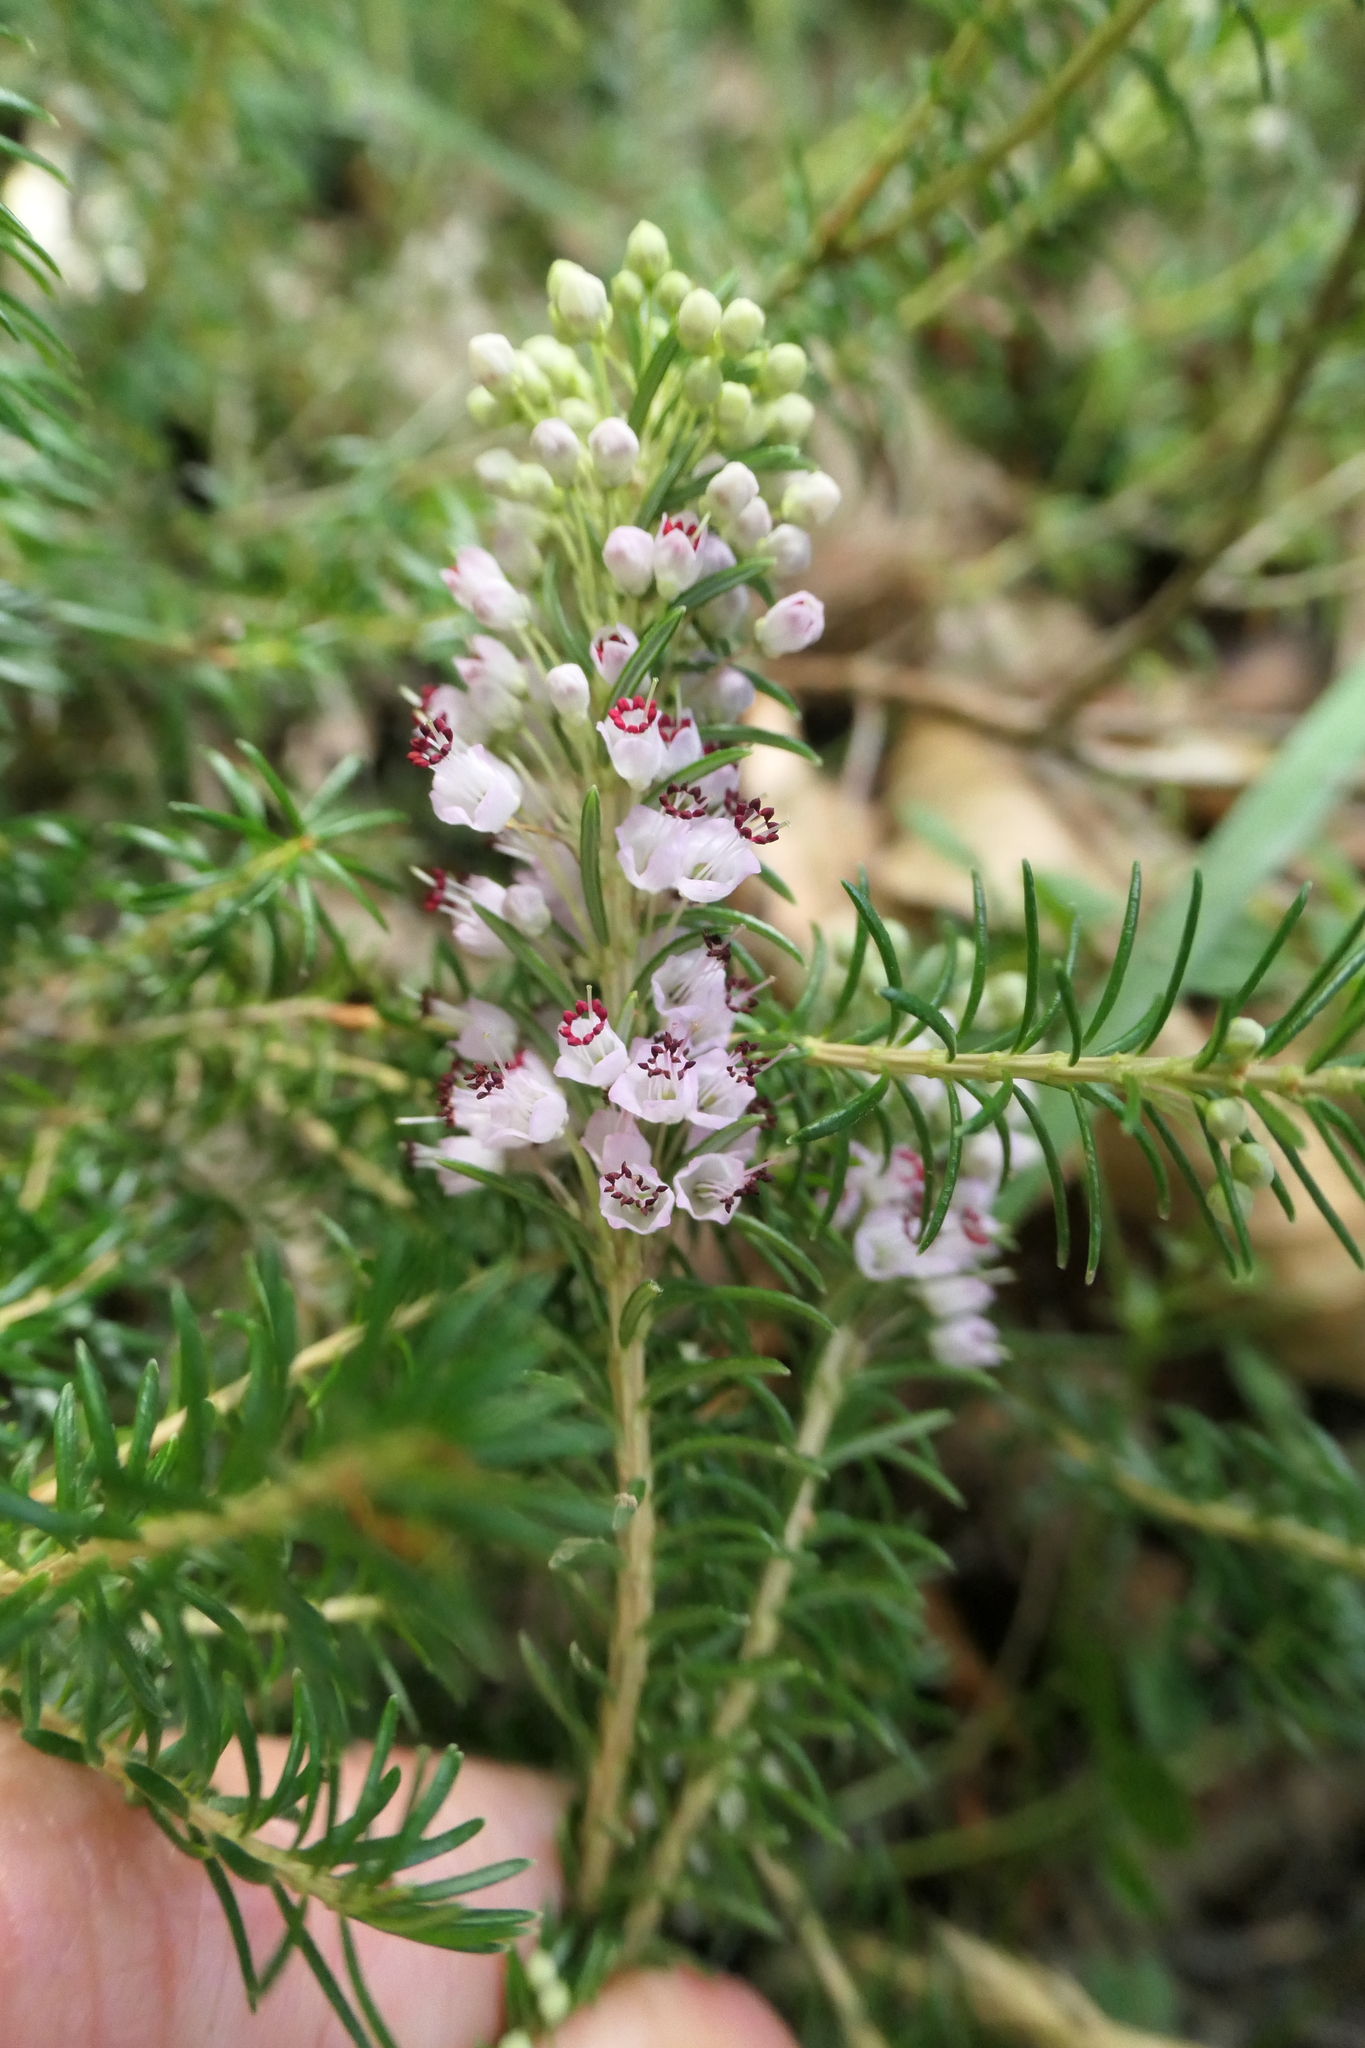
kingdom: Plantae
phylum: Tracheophyta
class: Magnoliopsida
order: Ericales
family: Ericaceae
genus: Erica
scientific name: Erica vagans
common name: Cornish heath
